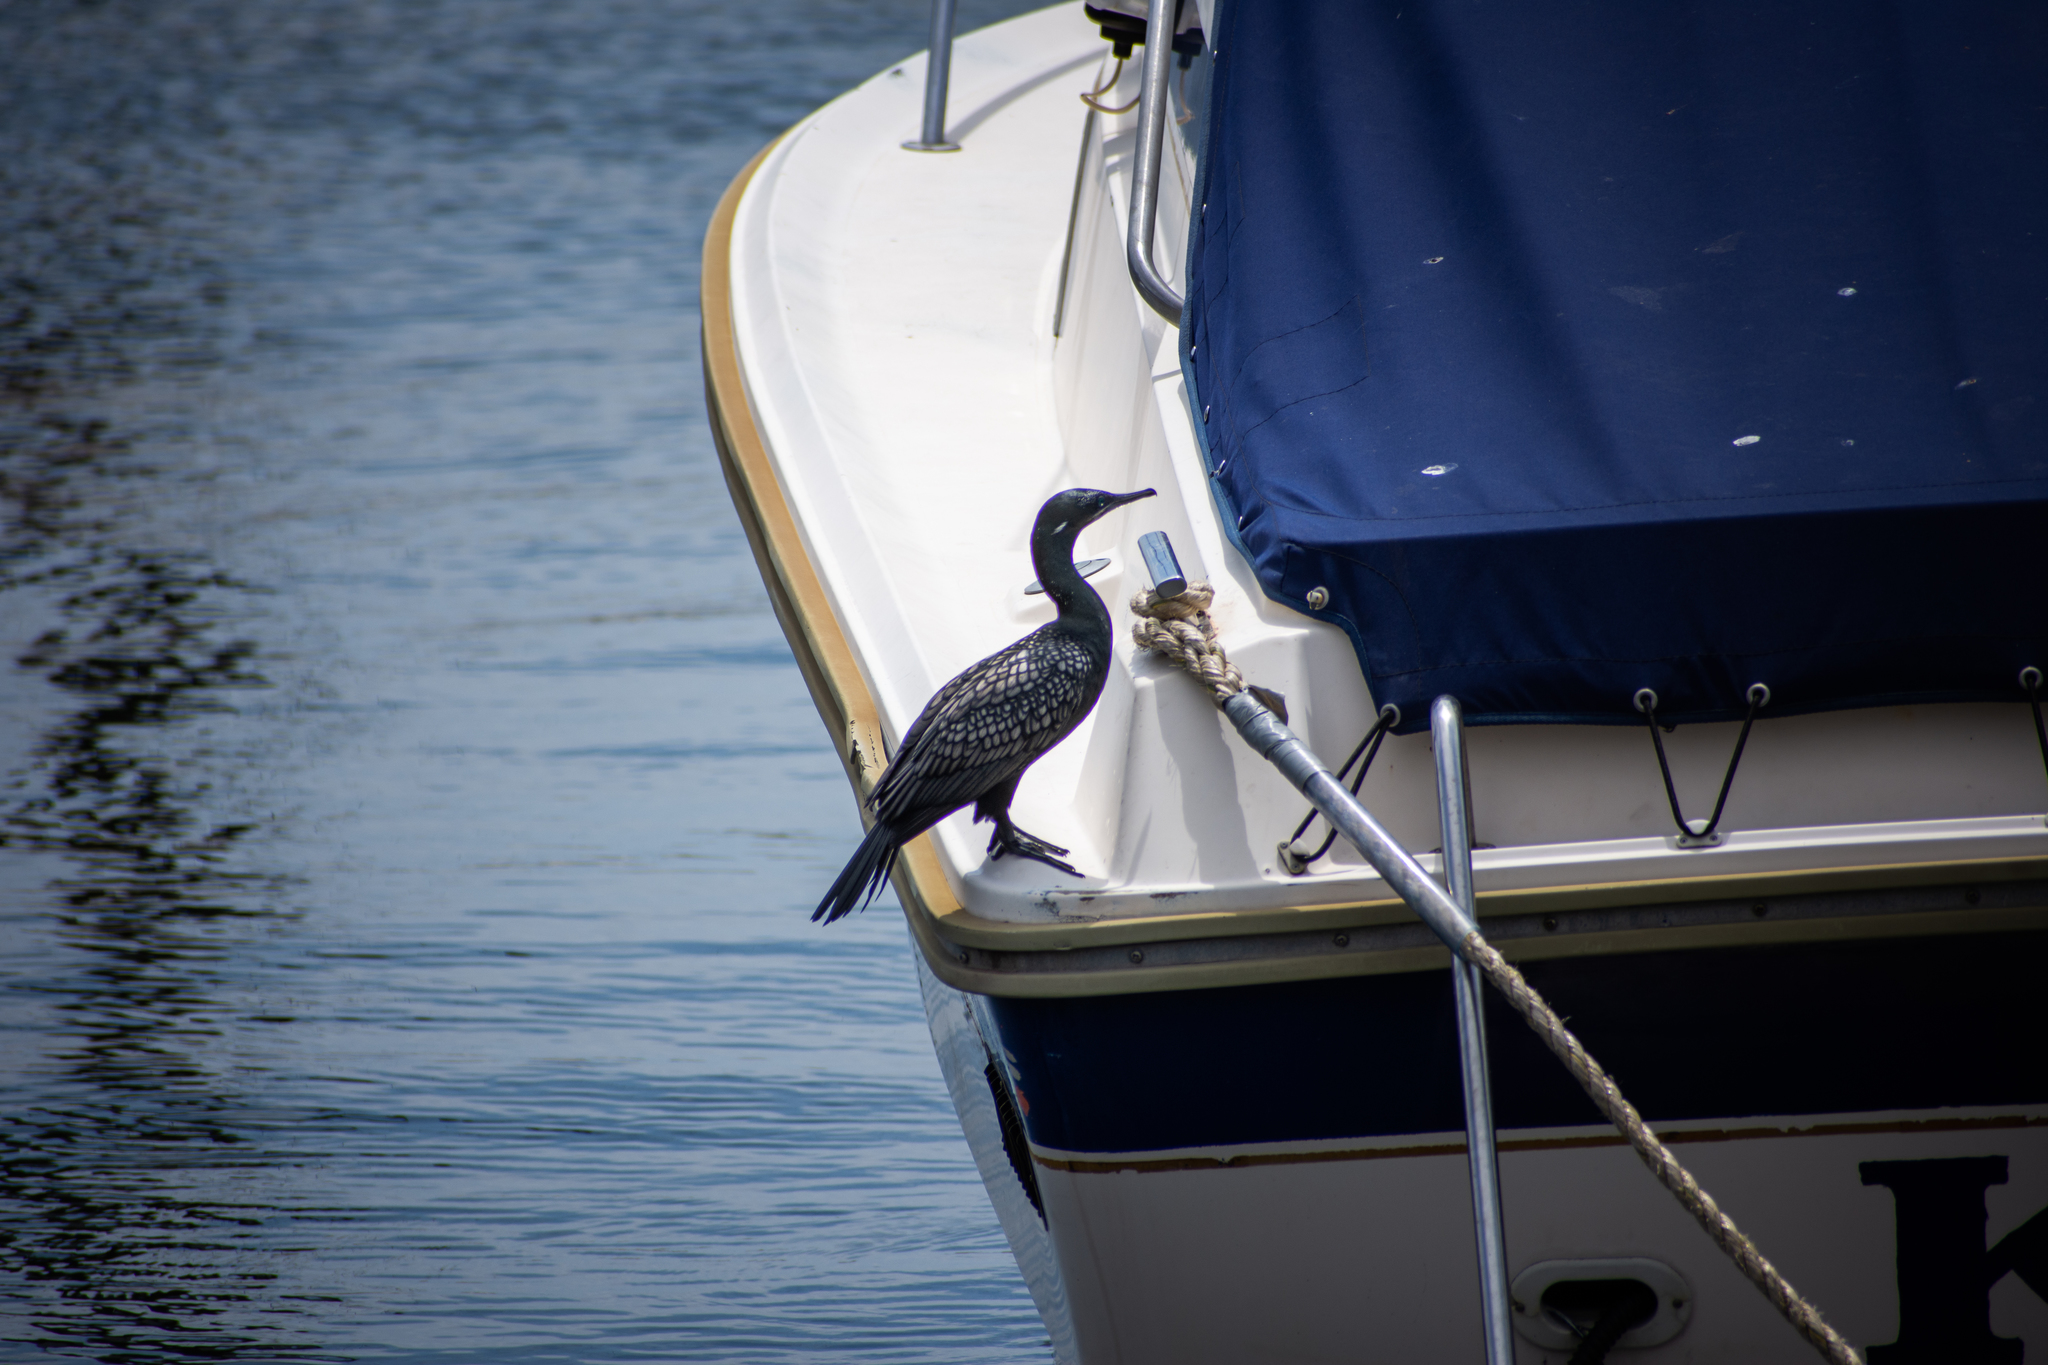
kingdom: Animalia
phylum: Chordata
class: Aves
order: Suliformes
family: Phalacrocoracidae
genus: Phalacrocorax
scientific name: Phalacrocorax sulcirostris
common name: Little black cormorant
